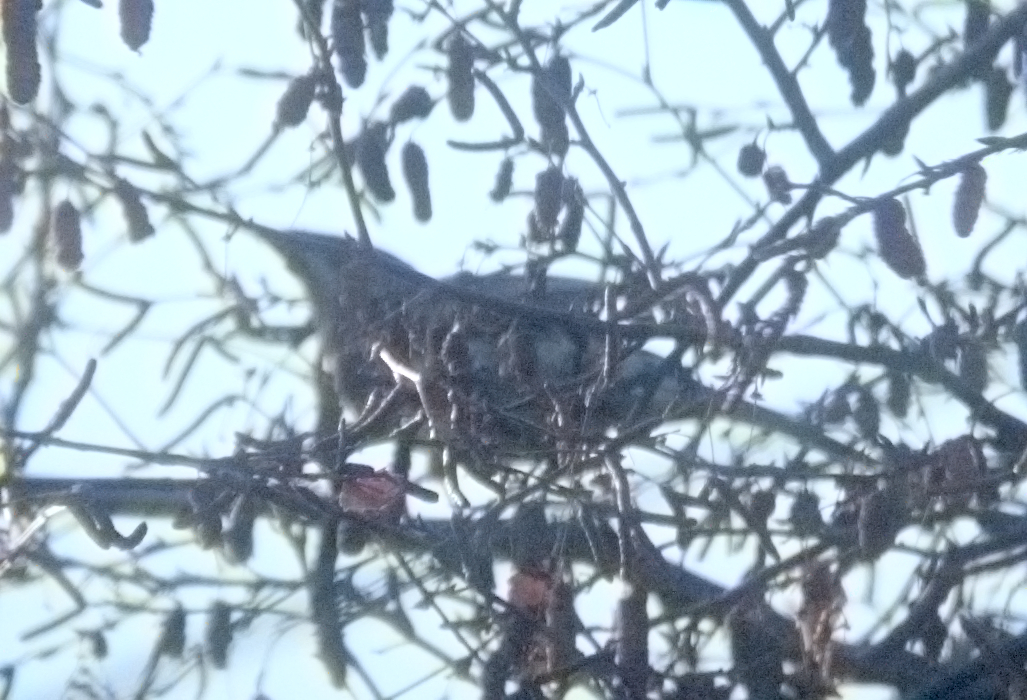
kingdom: Animalia
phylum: Chordata
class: Aves
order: Passeriformes
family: Meliphagidae
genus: Anthochaera
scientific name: Anthochaera carunculata
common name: Red wattlebird
